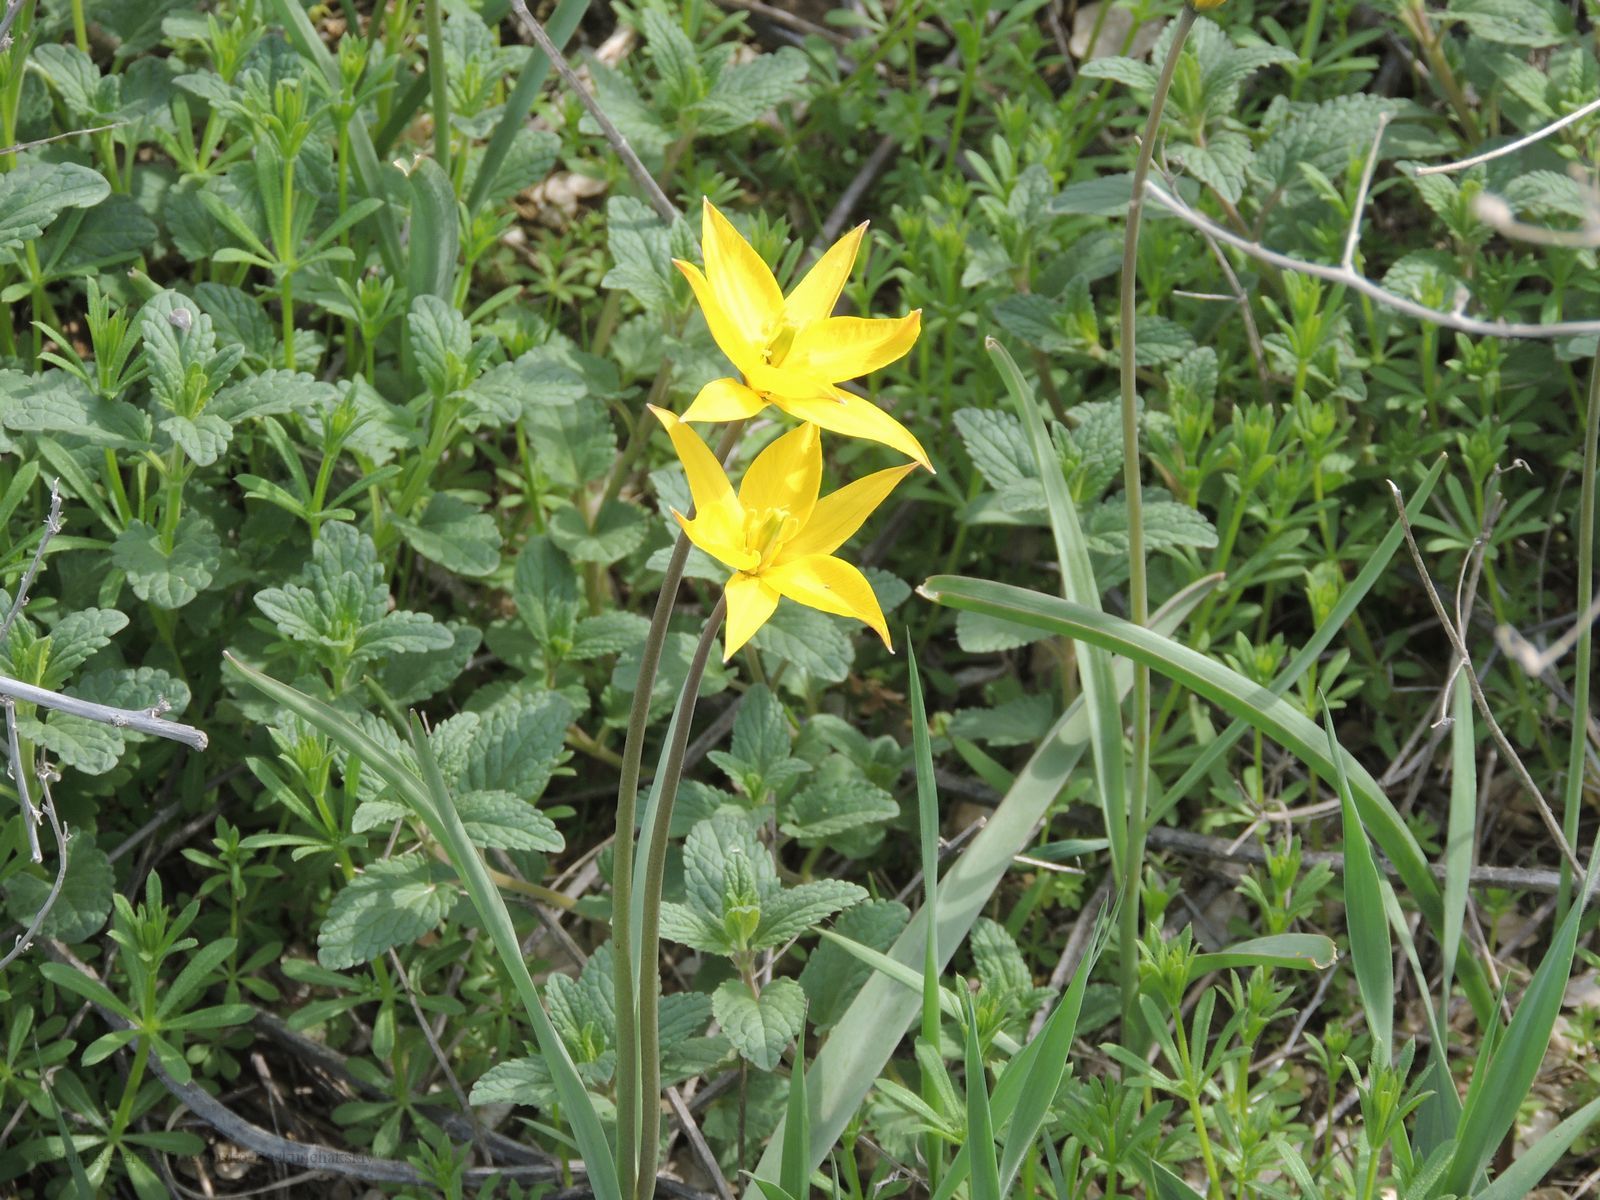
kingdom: Plantae
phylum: Tracheophyta
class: Liliopsida
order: Liliales
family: Liliaceae
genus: Tulipa
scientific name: Tulipa sylvestris
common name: Wild tulip
